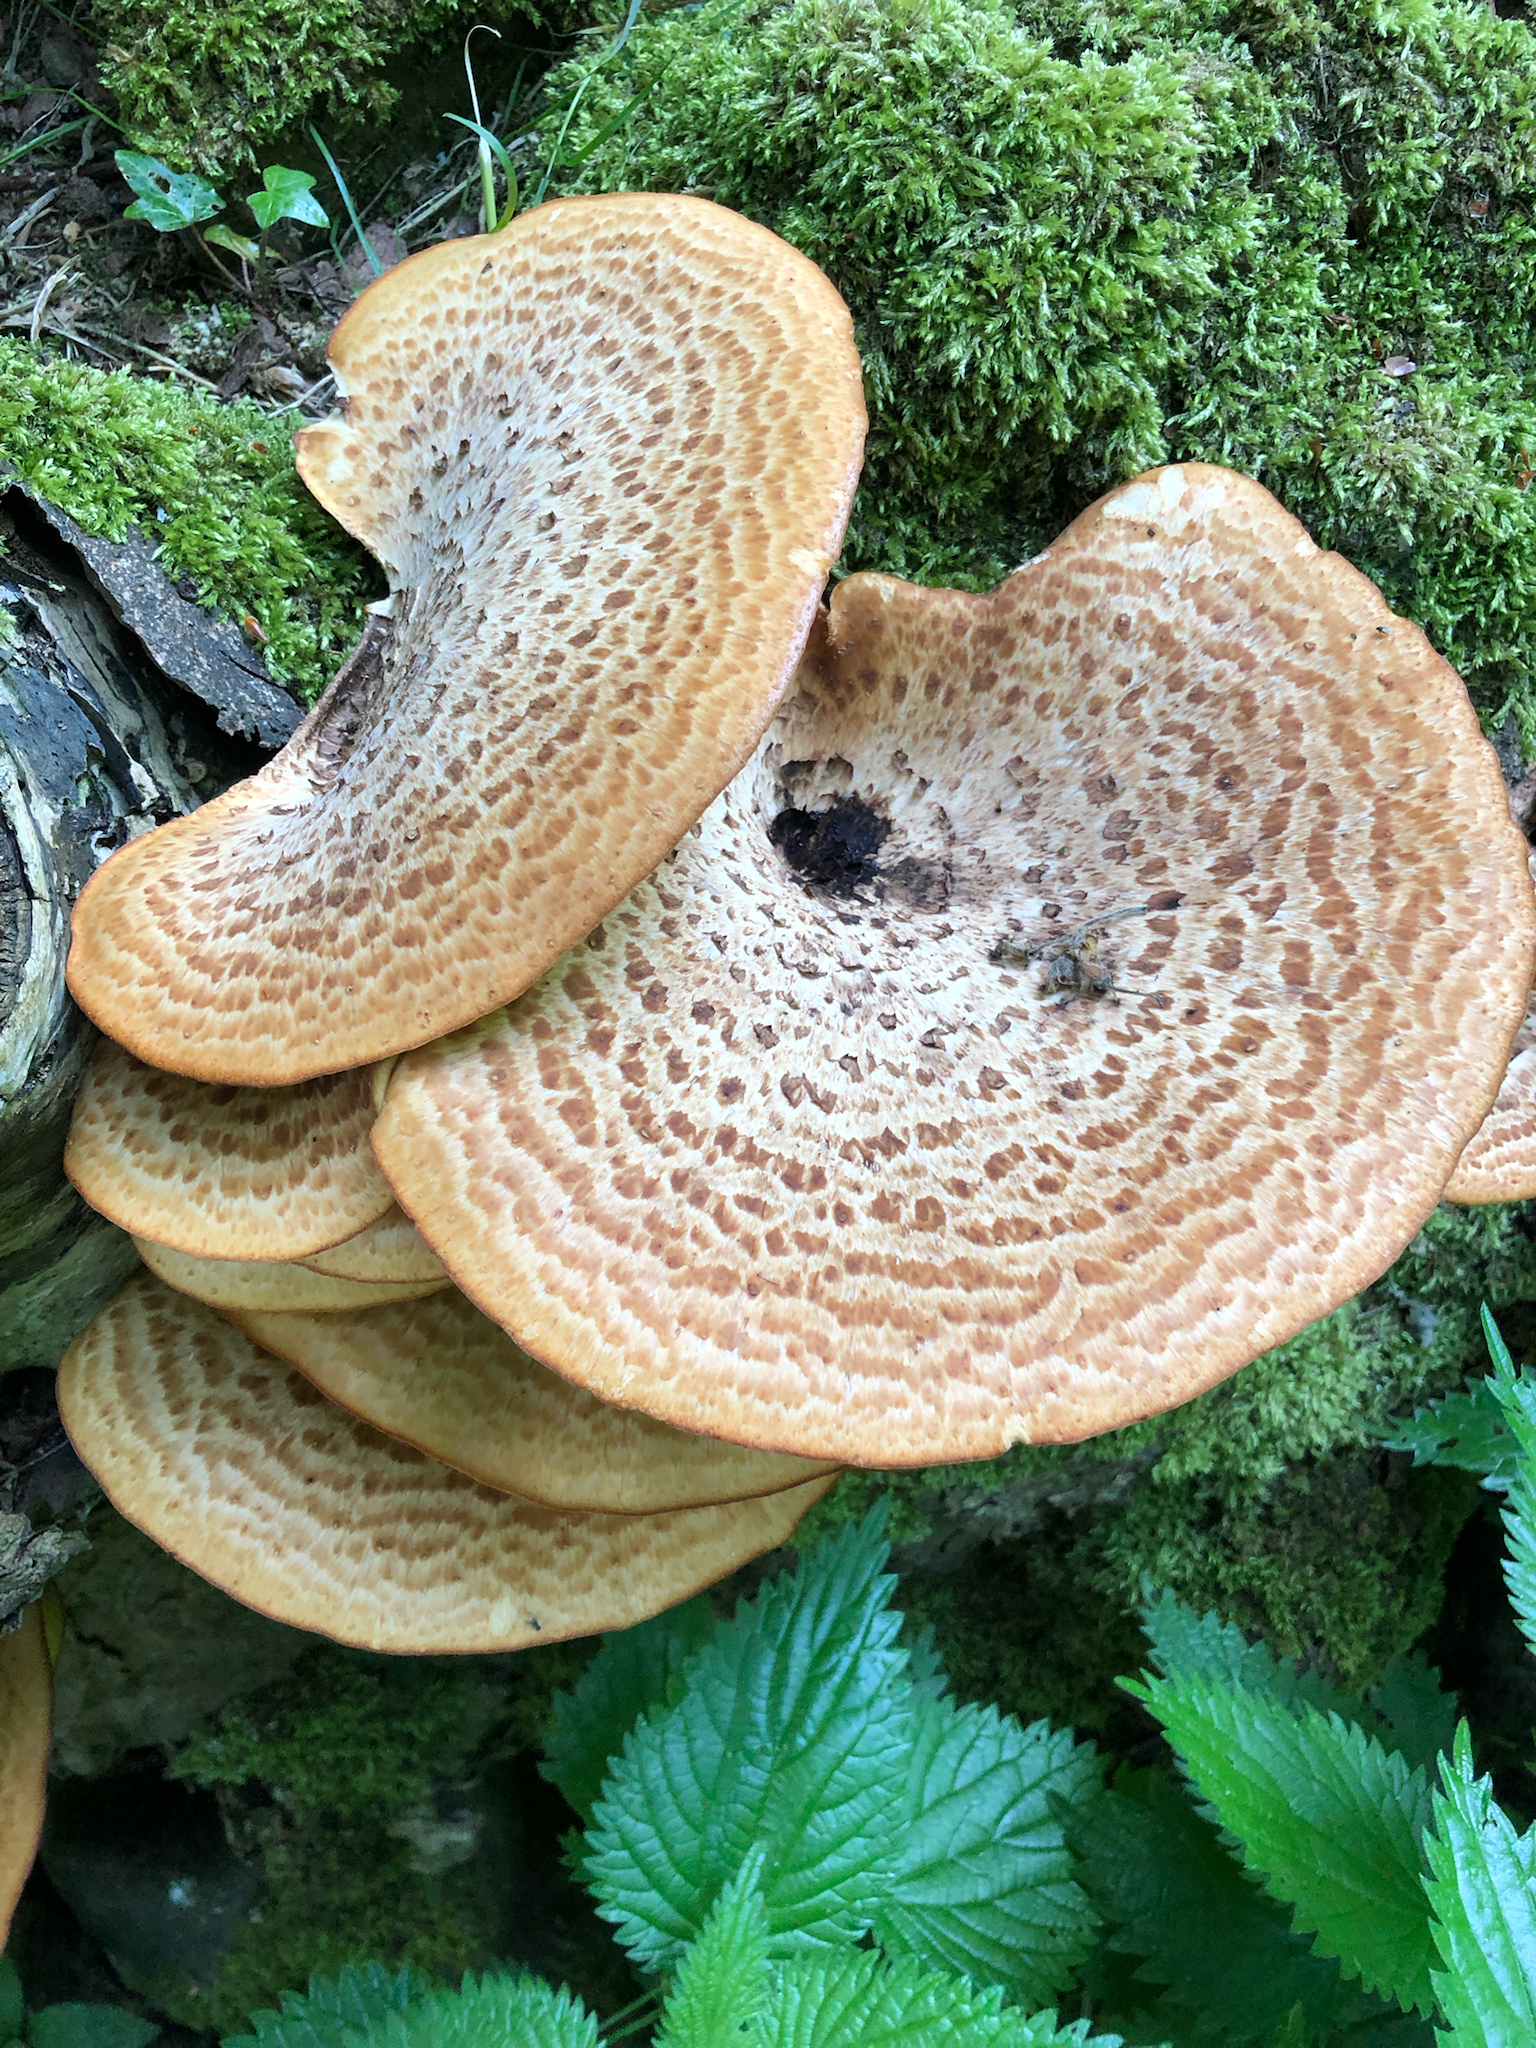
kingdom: Fungi
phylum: Basidiomycota
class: Agaricomycetes
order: Polyporales
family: Polyporaceae
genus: Cerioporus
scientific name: Cerioporus squamosus
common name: Dryad's saddle
